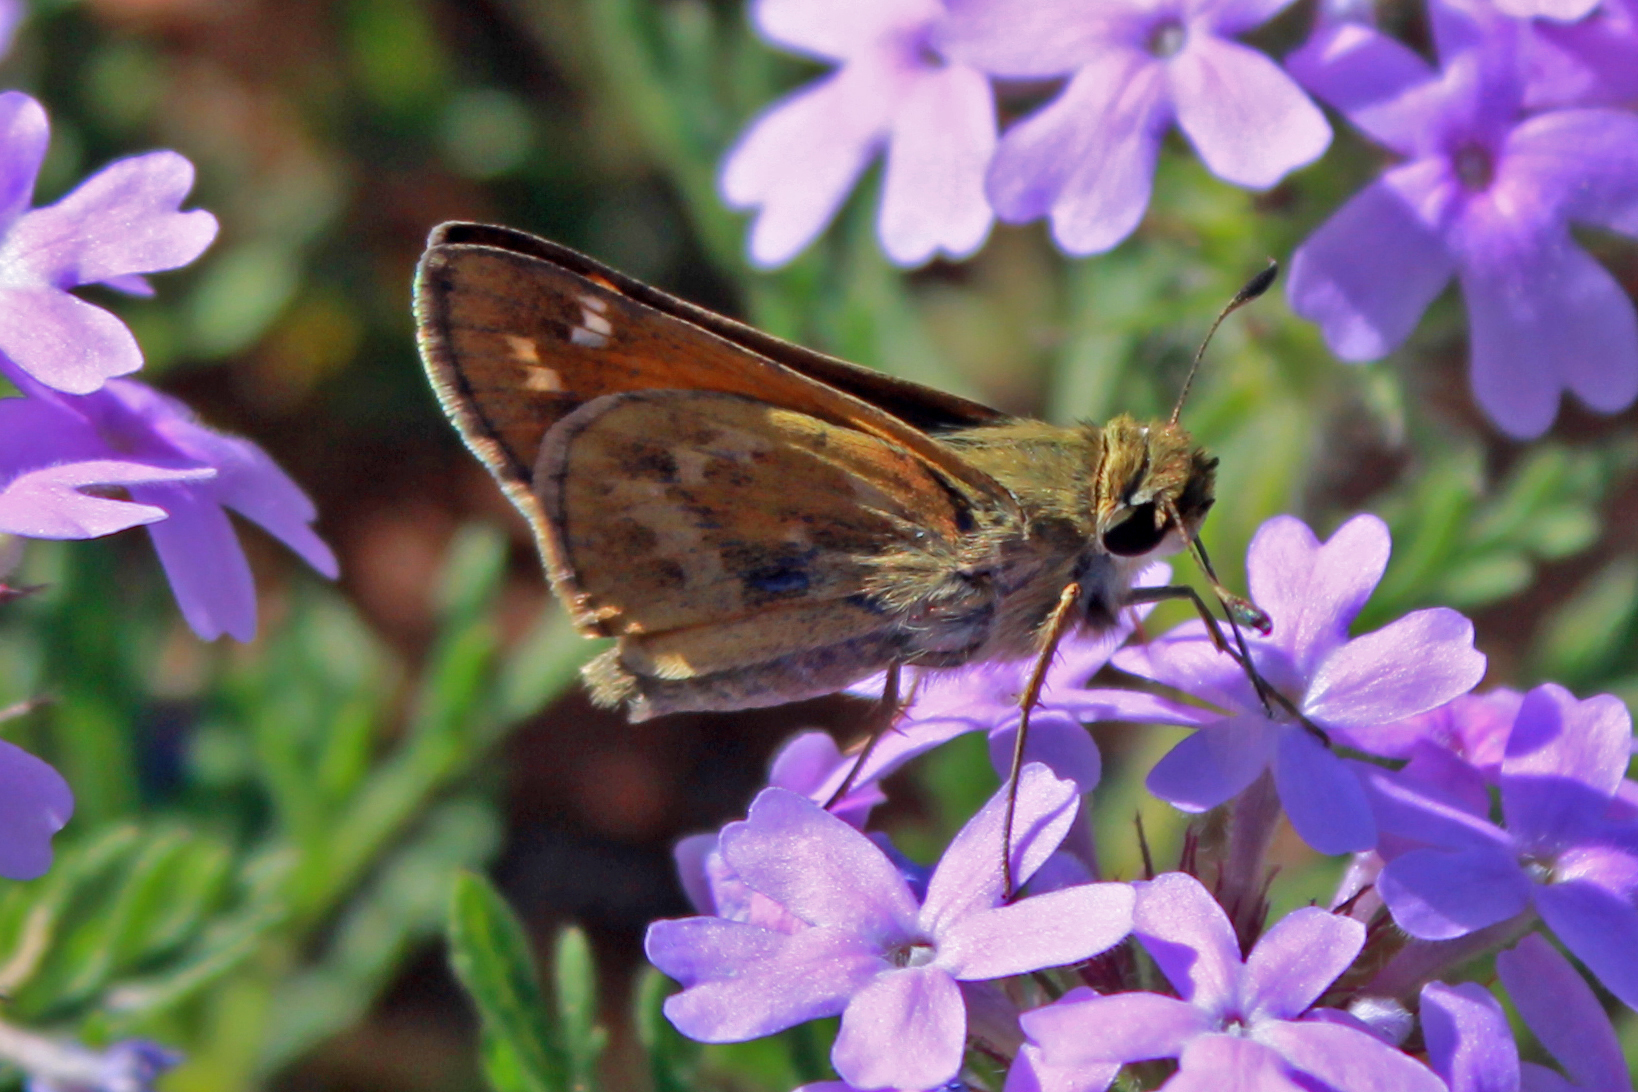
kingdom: Animalia
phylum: Arthropoda
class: Insecta
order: Lepidoptera
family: Hesperiidae
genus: Atalopedes
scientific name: Atalopedes
